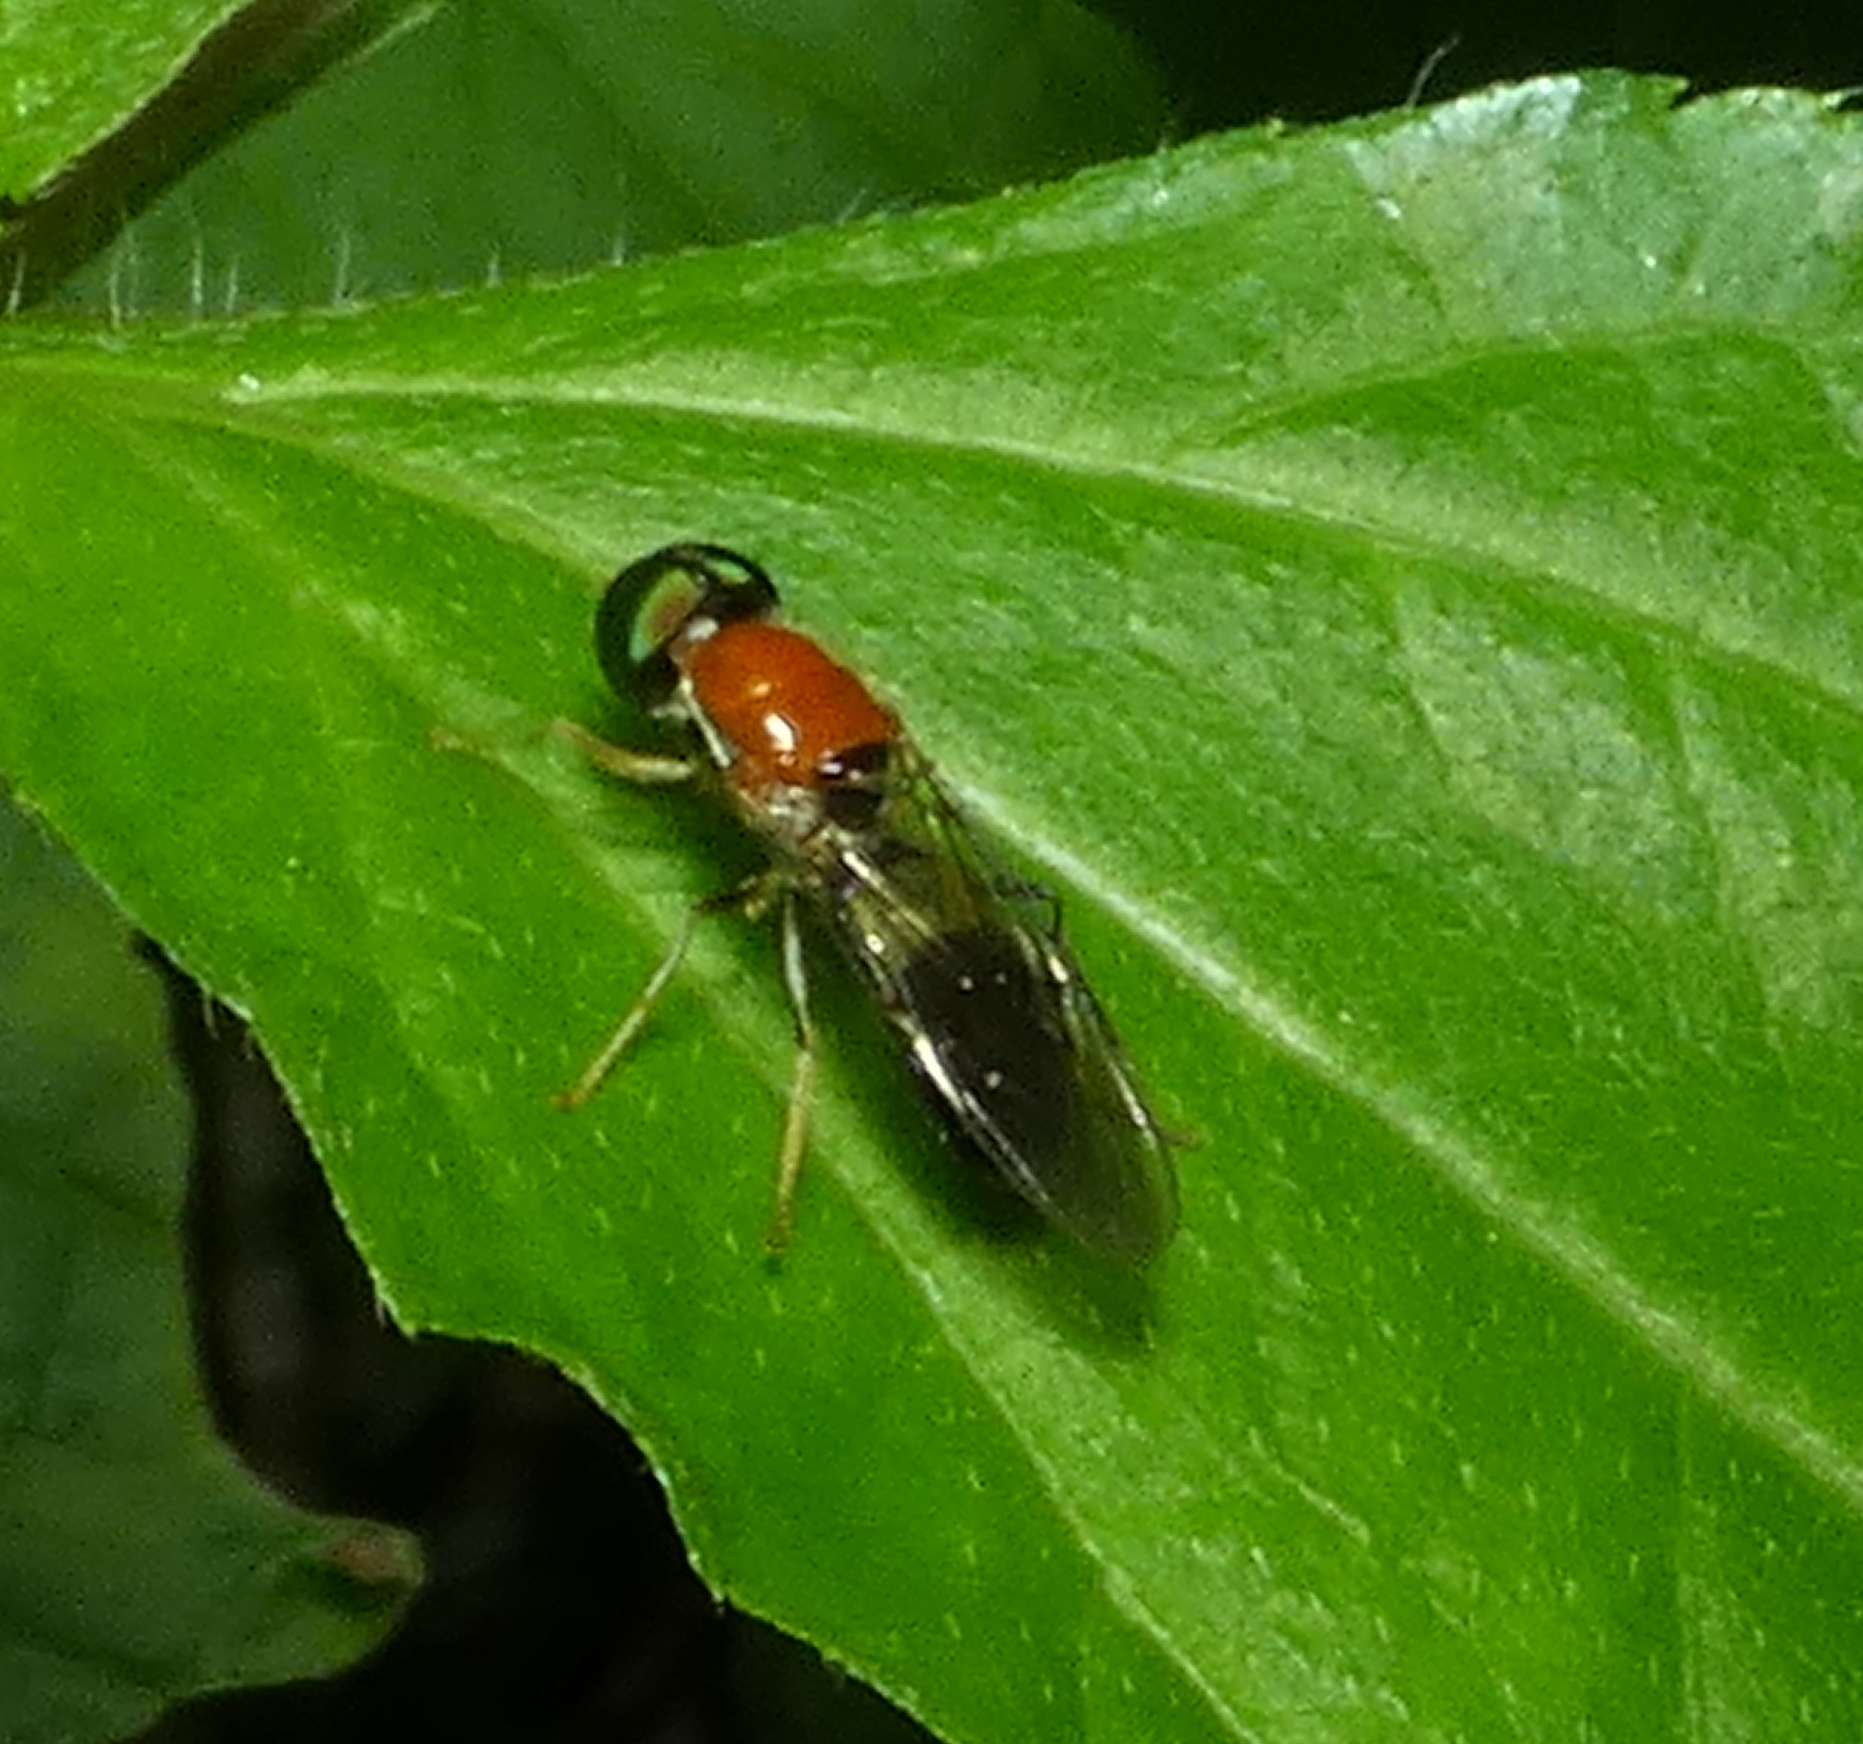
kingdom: Animalia
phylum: Arthropoda
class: Insecta
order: Diptera
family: Stratiomyidae
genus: Sargus
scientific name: Sargus thoracicus
